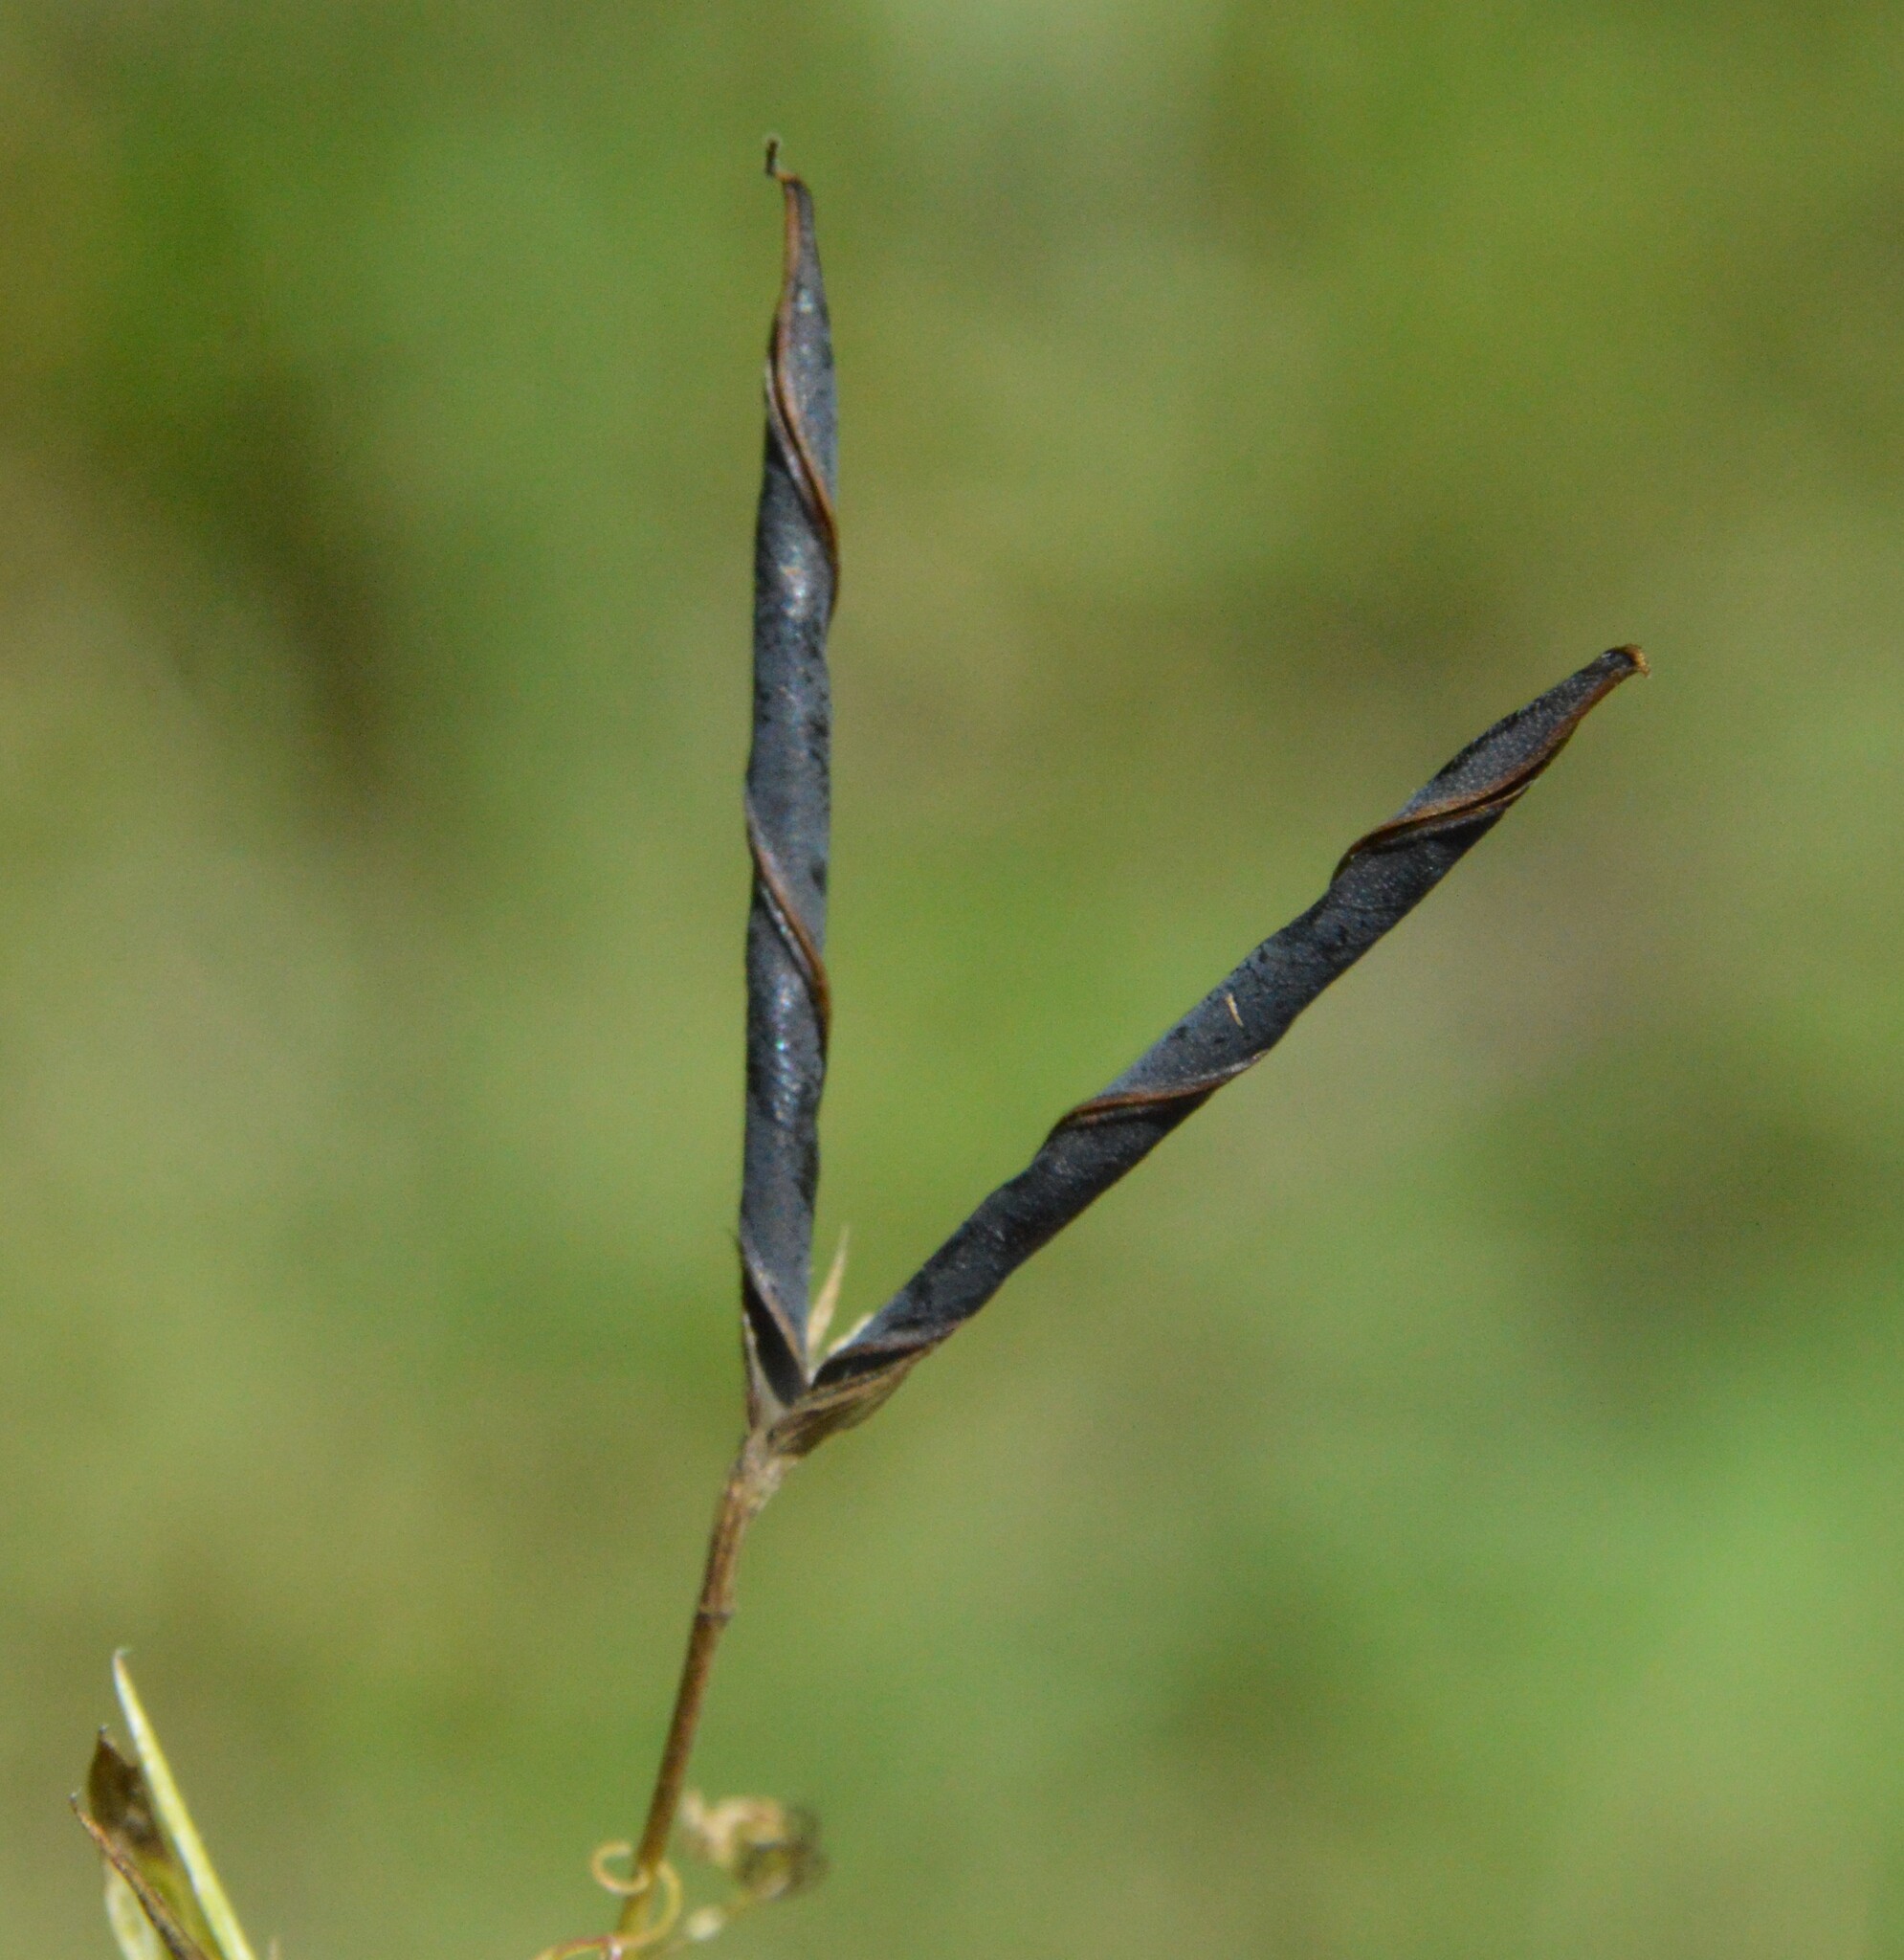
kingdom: Plantae
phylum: Tracheophyta
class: Magnoliopsida
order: Fabales
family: Fabaceae
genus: Lathyrus
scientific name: Lathyrus pusillus
